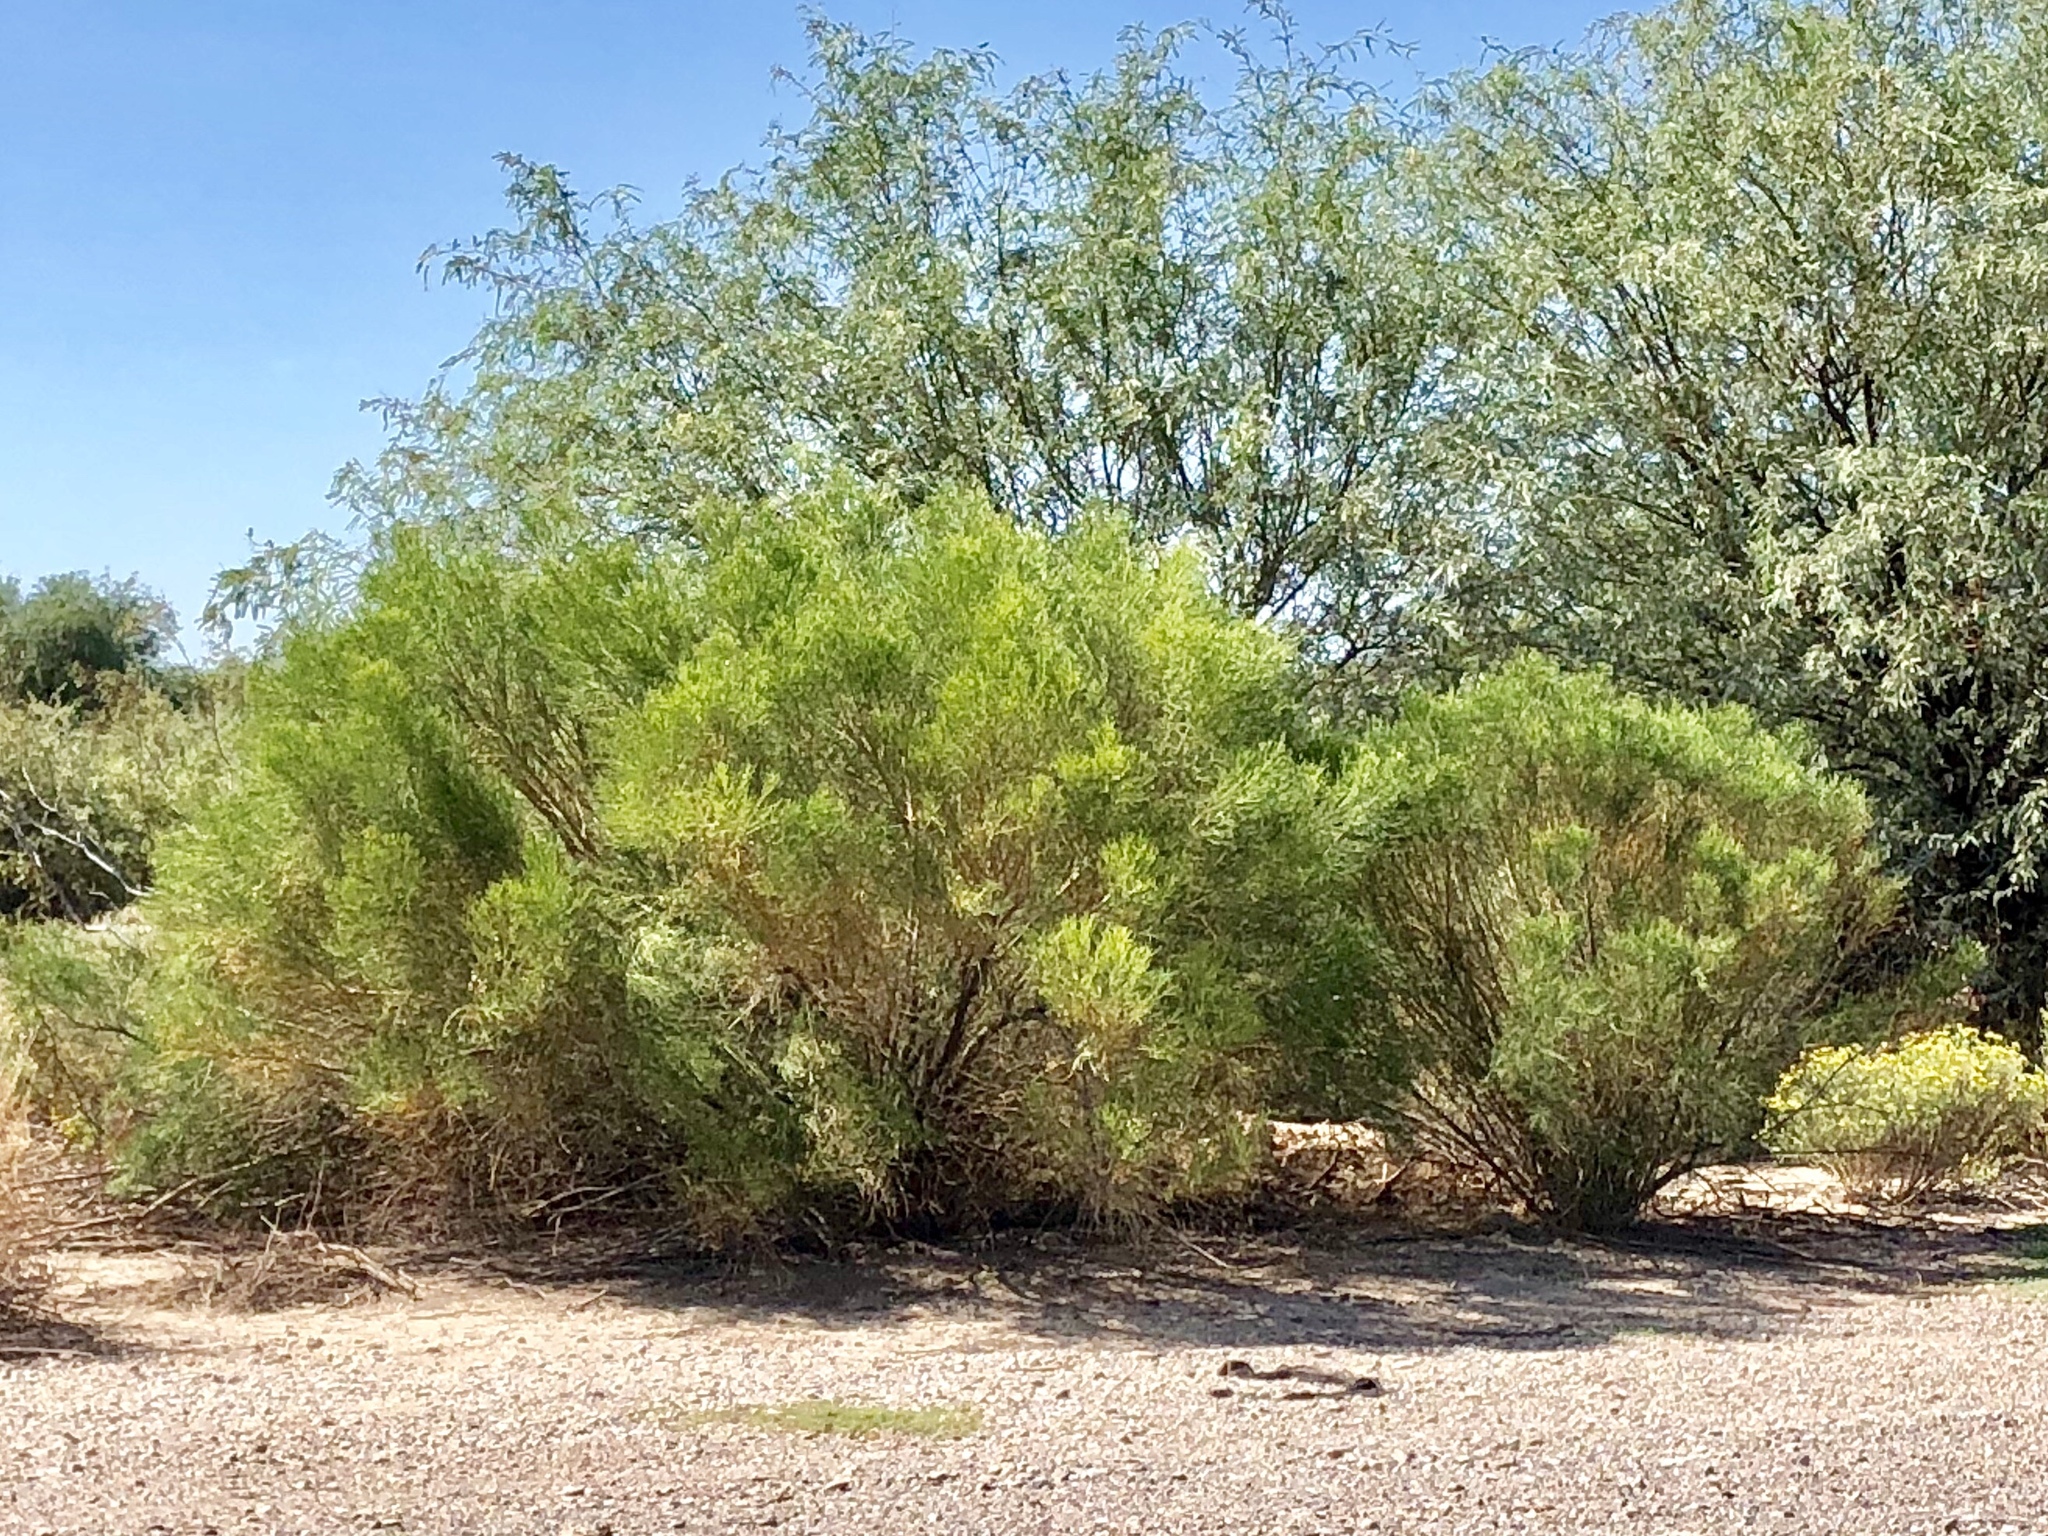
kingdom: Plantae
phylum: Tracheophyta
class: Magnoliopsida
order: Asterales
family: Asteraceae
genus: Baccharis
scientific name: Baccharis sarothroides
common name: Desert-broom
